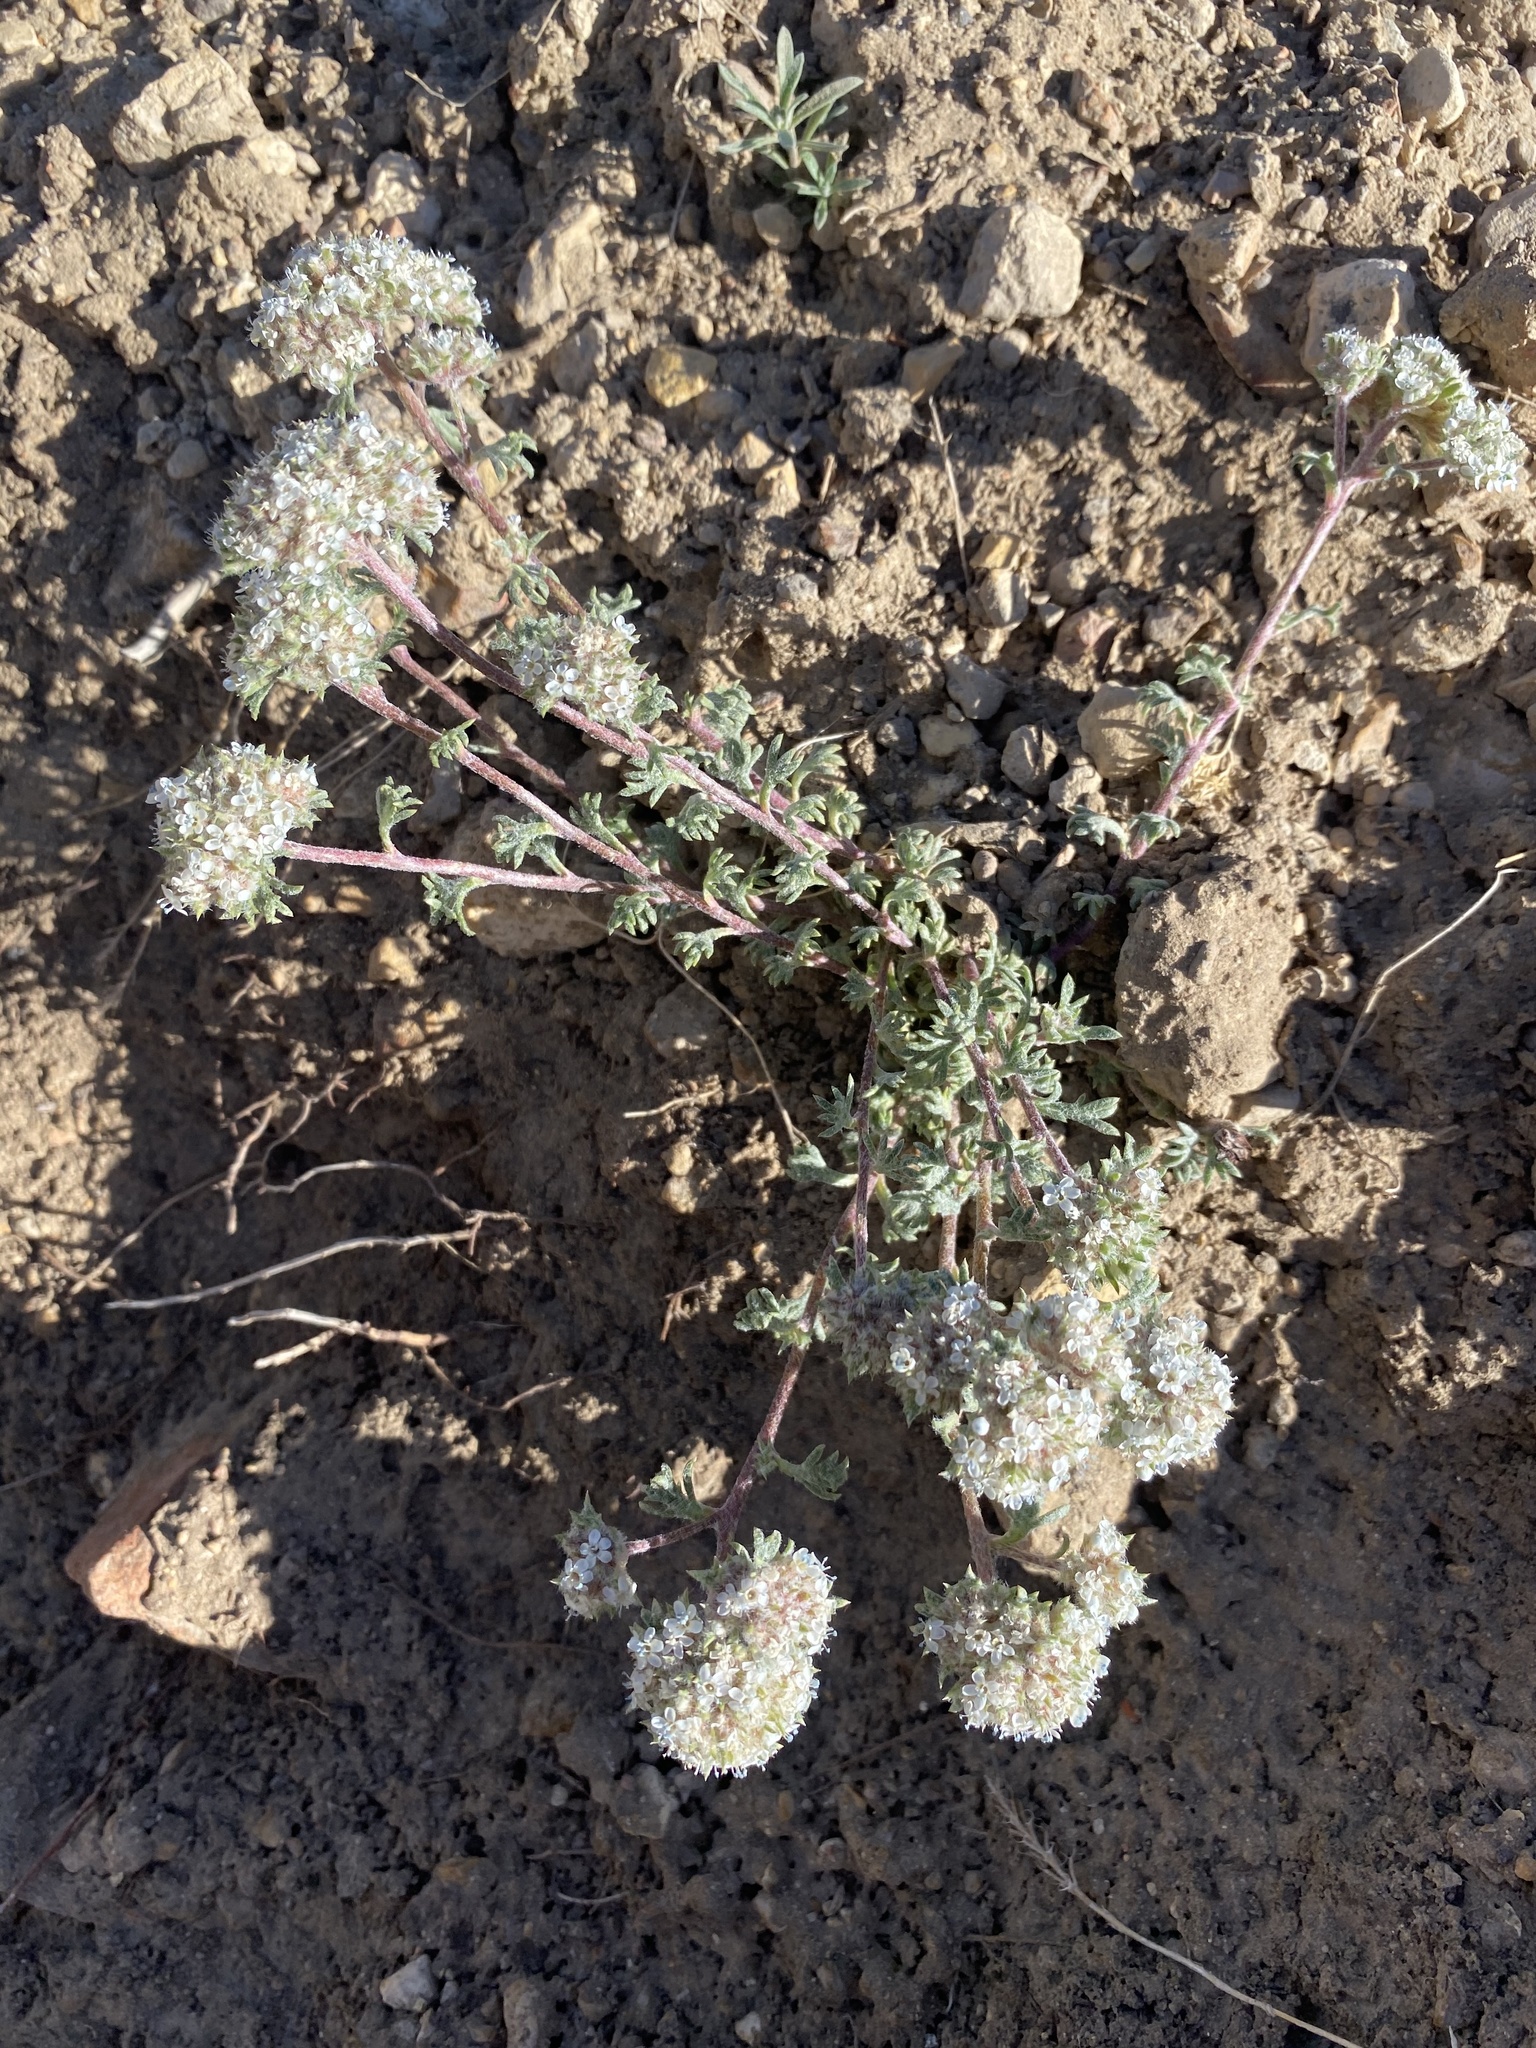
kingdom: Plantae
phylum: Tracheophyta
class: Magnoliopsida
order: Ericales
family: Polemoniaceae
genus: Ipomopsis
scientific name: Ipomopsis congesta
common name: Ball-head gilia
